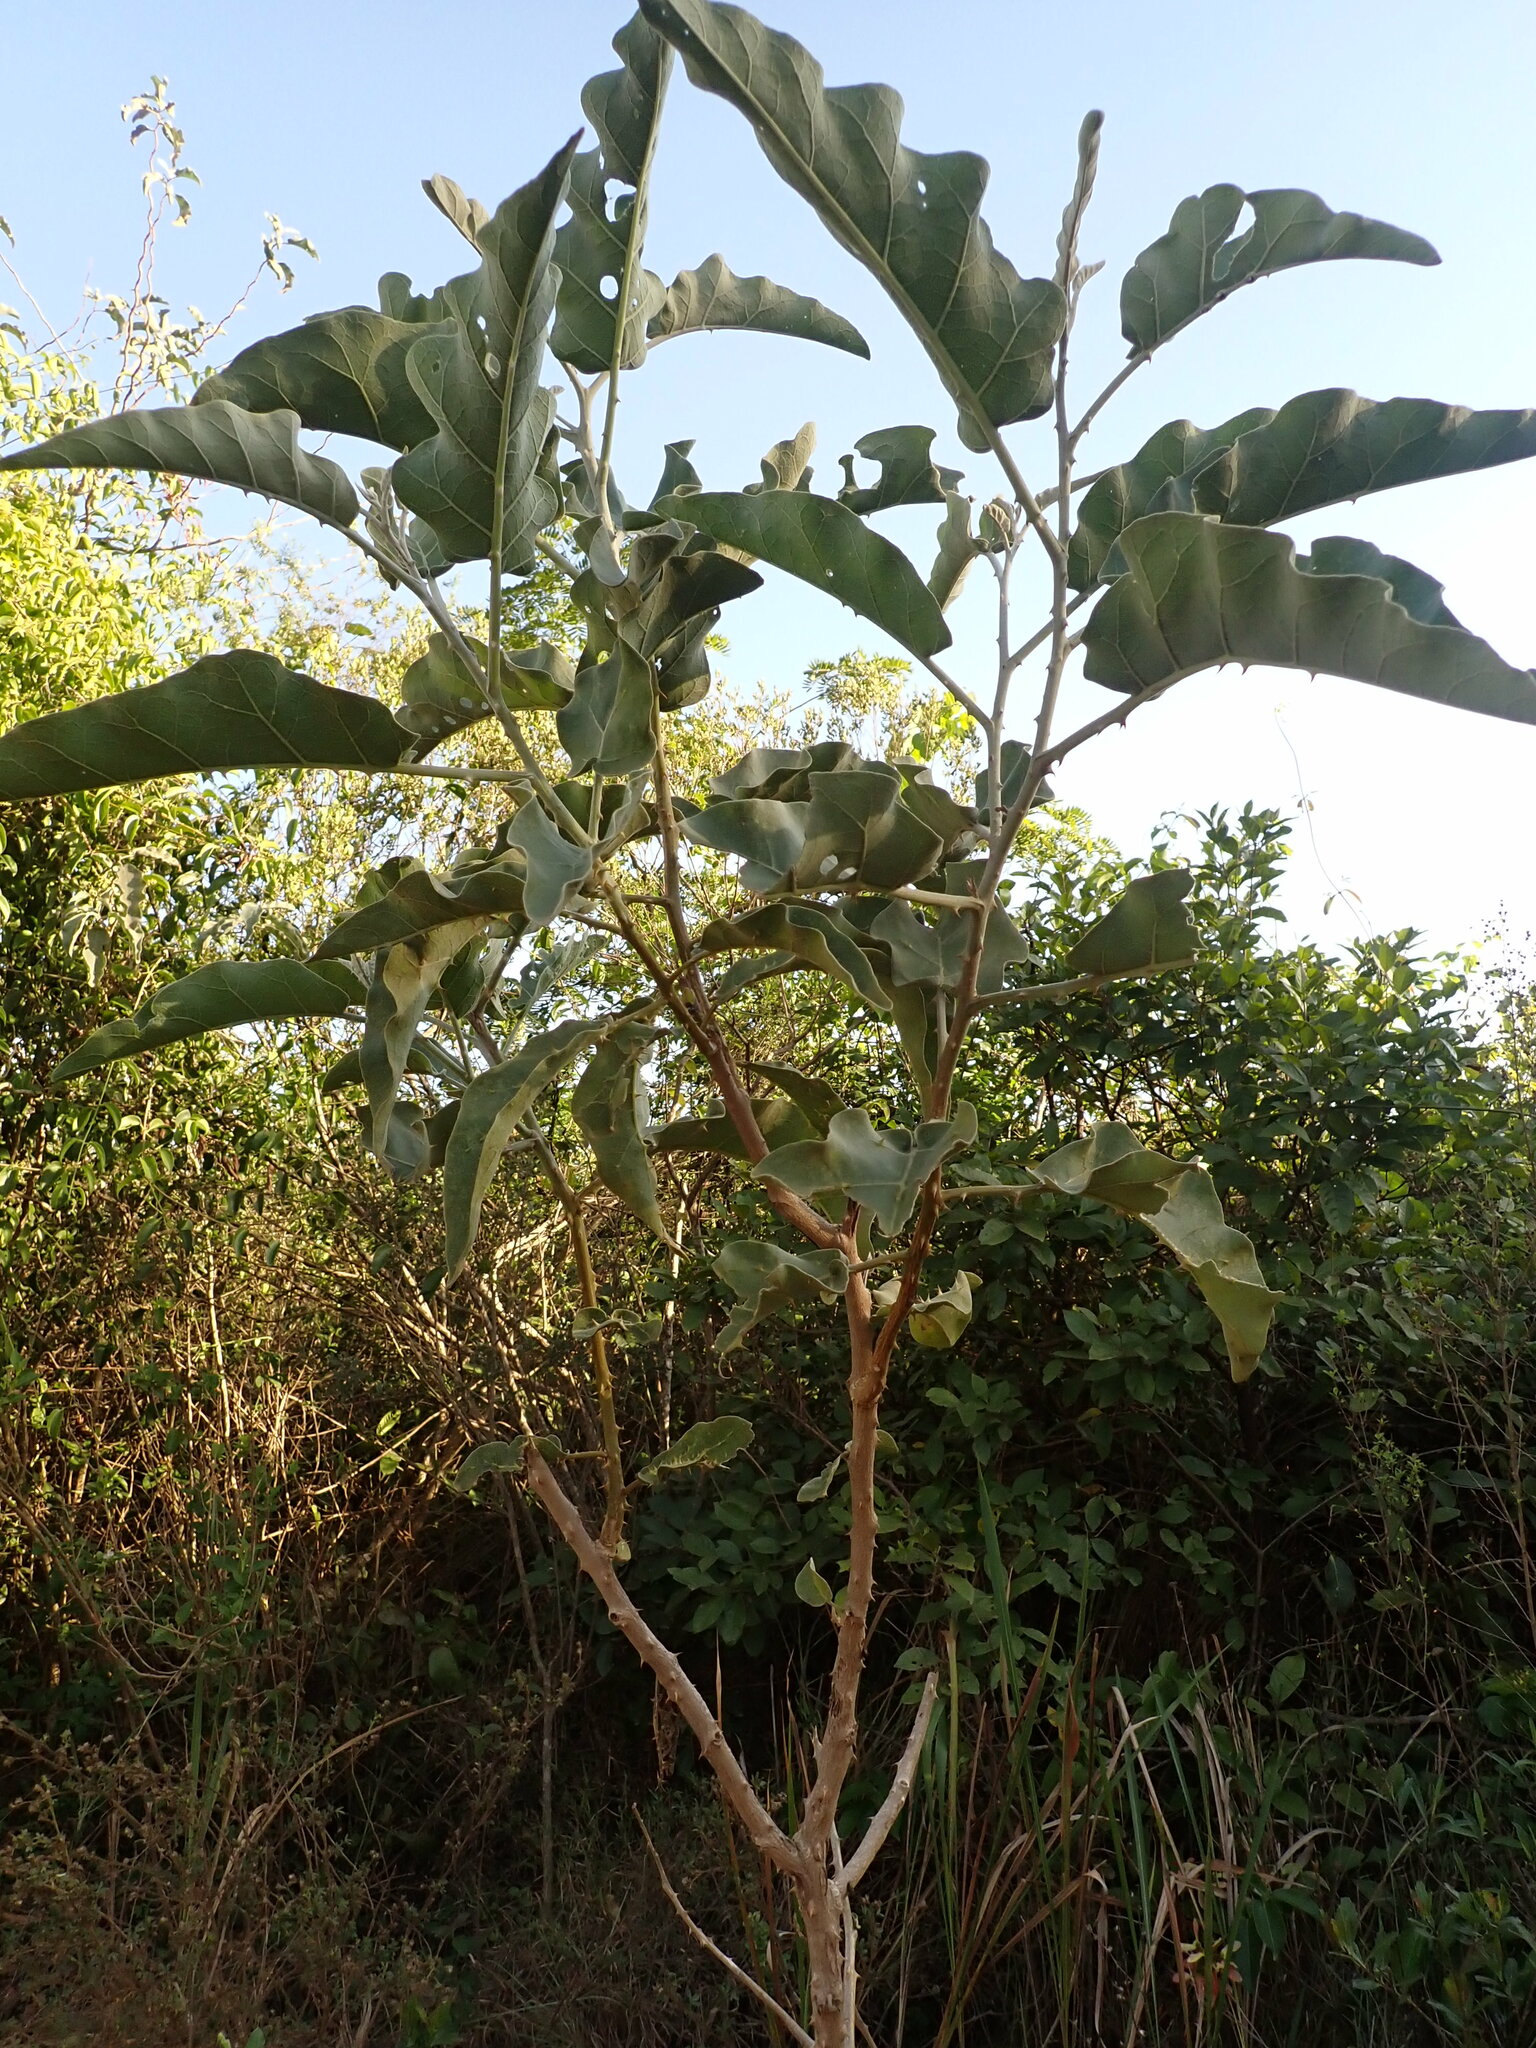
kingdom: Plantae
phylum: Tracheophyta
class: Magnoliopsida
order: Solanales
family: Solanaceae
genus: Solanum
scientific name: Solanum lycocarpum
